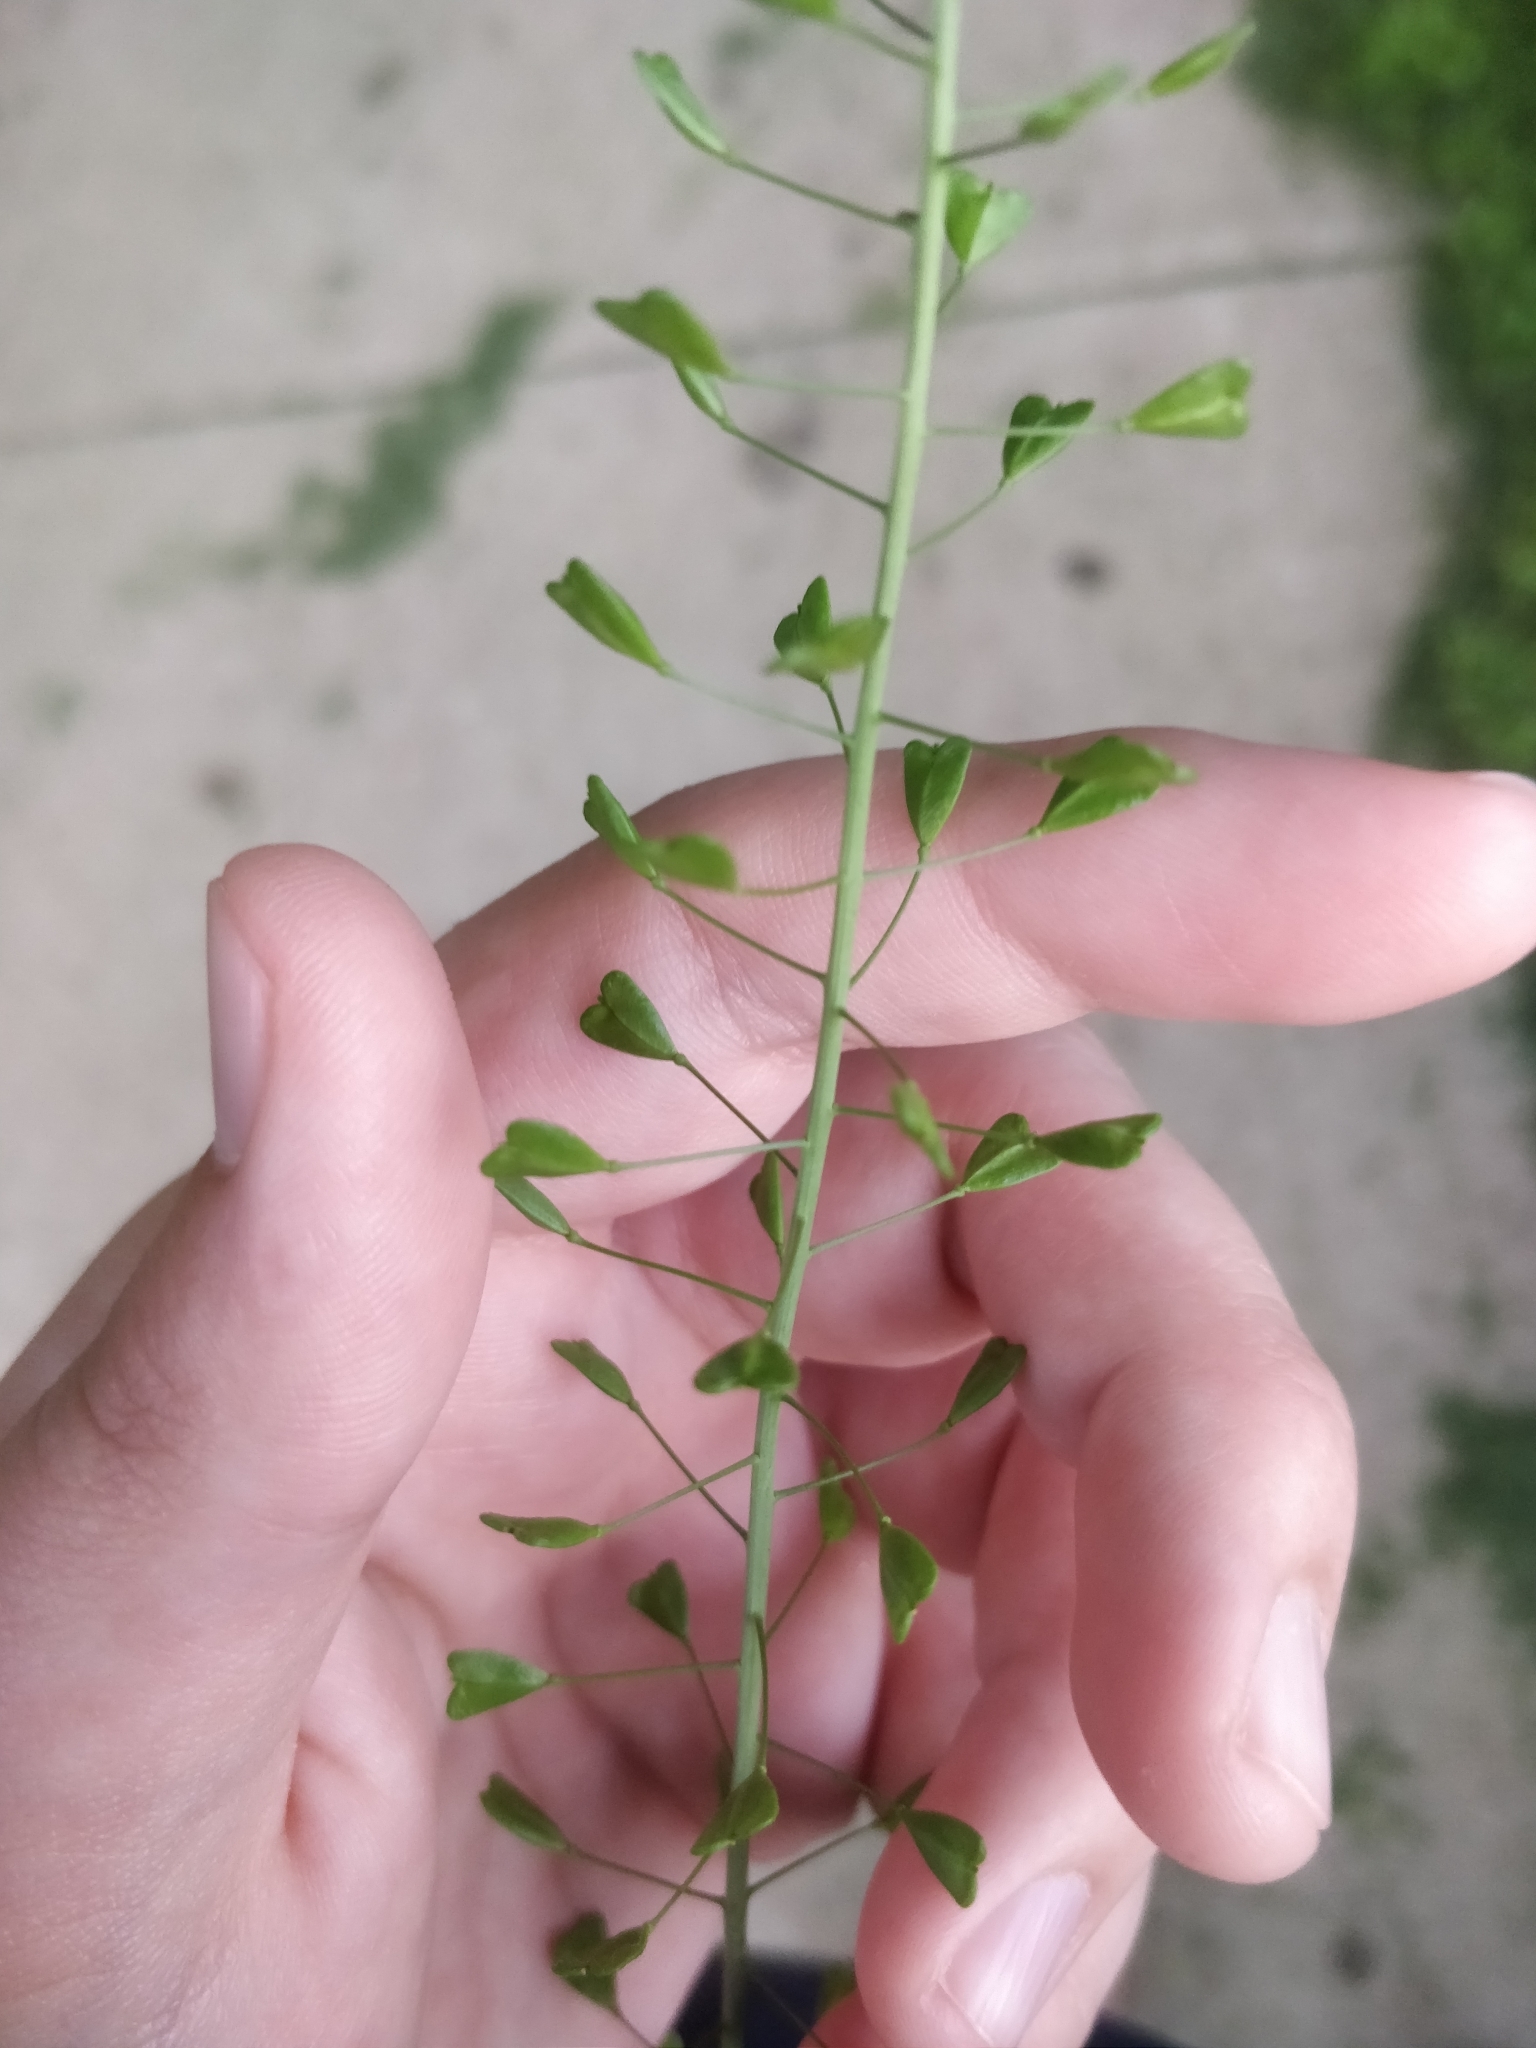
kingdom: Plantae
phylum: Tracheophyta
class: Magnoliopsida
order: Brassicales
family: Brassicaceae
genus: Capsella
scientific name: Capsella bursa-pastoris
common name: Shepherd's purse
